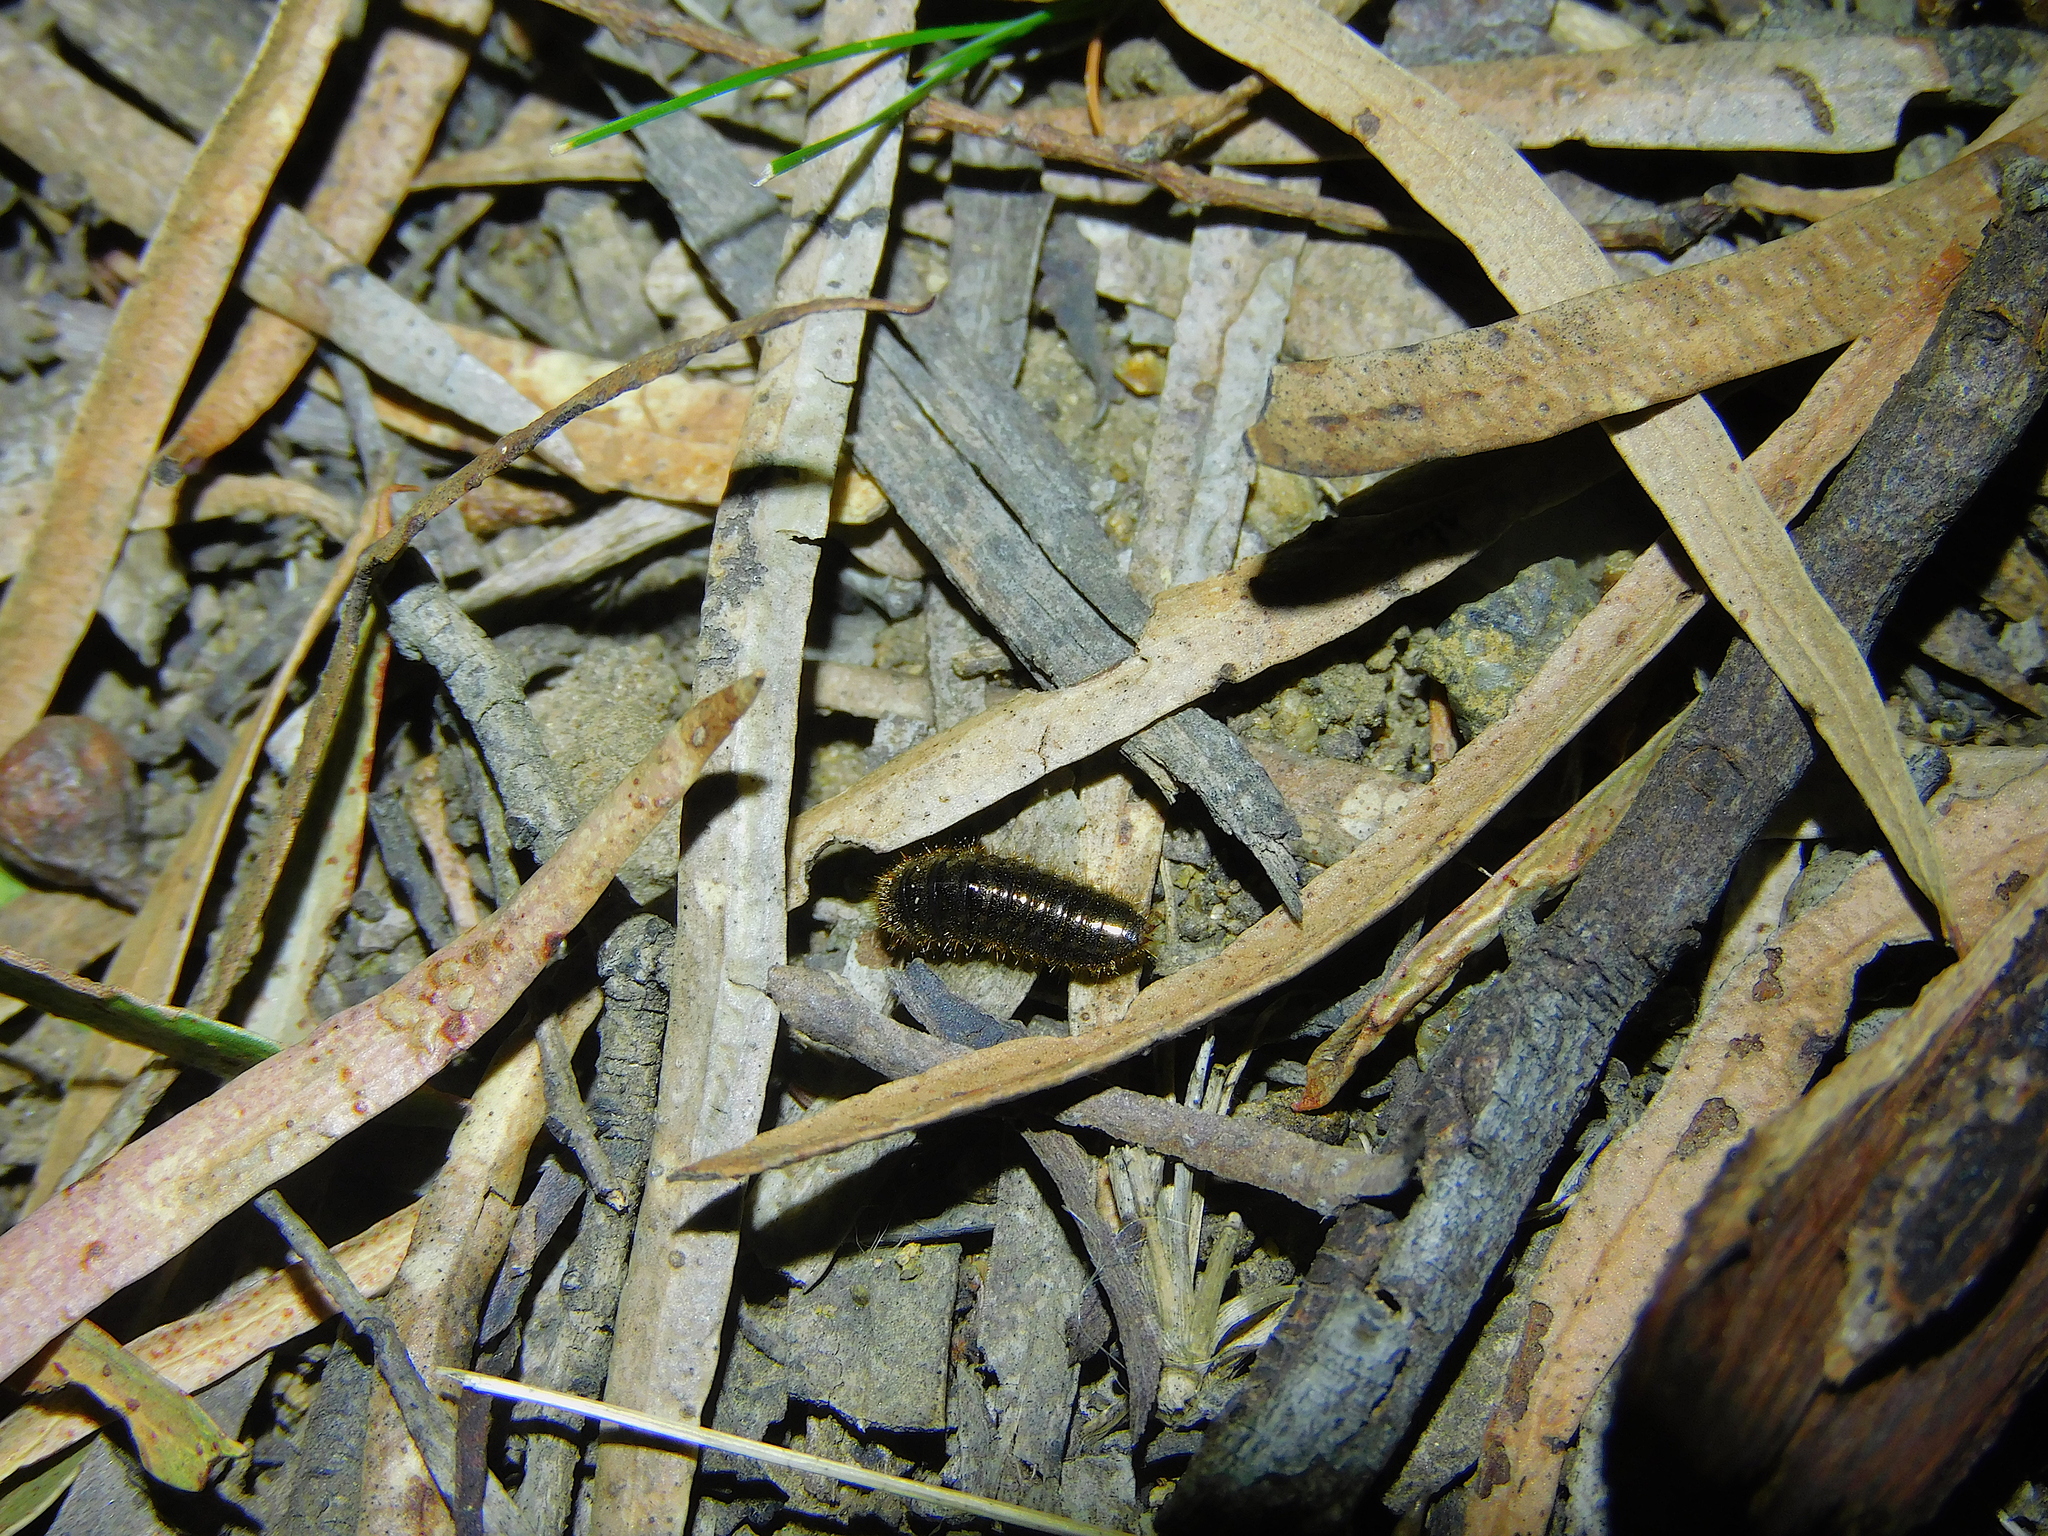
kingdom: Animalia
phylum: Arthropoda
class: Insecta
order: Coleoptera
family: Tenebrionidae
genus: Ecnolagria
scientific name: Ecnolagria
